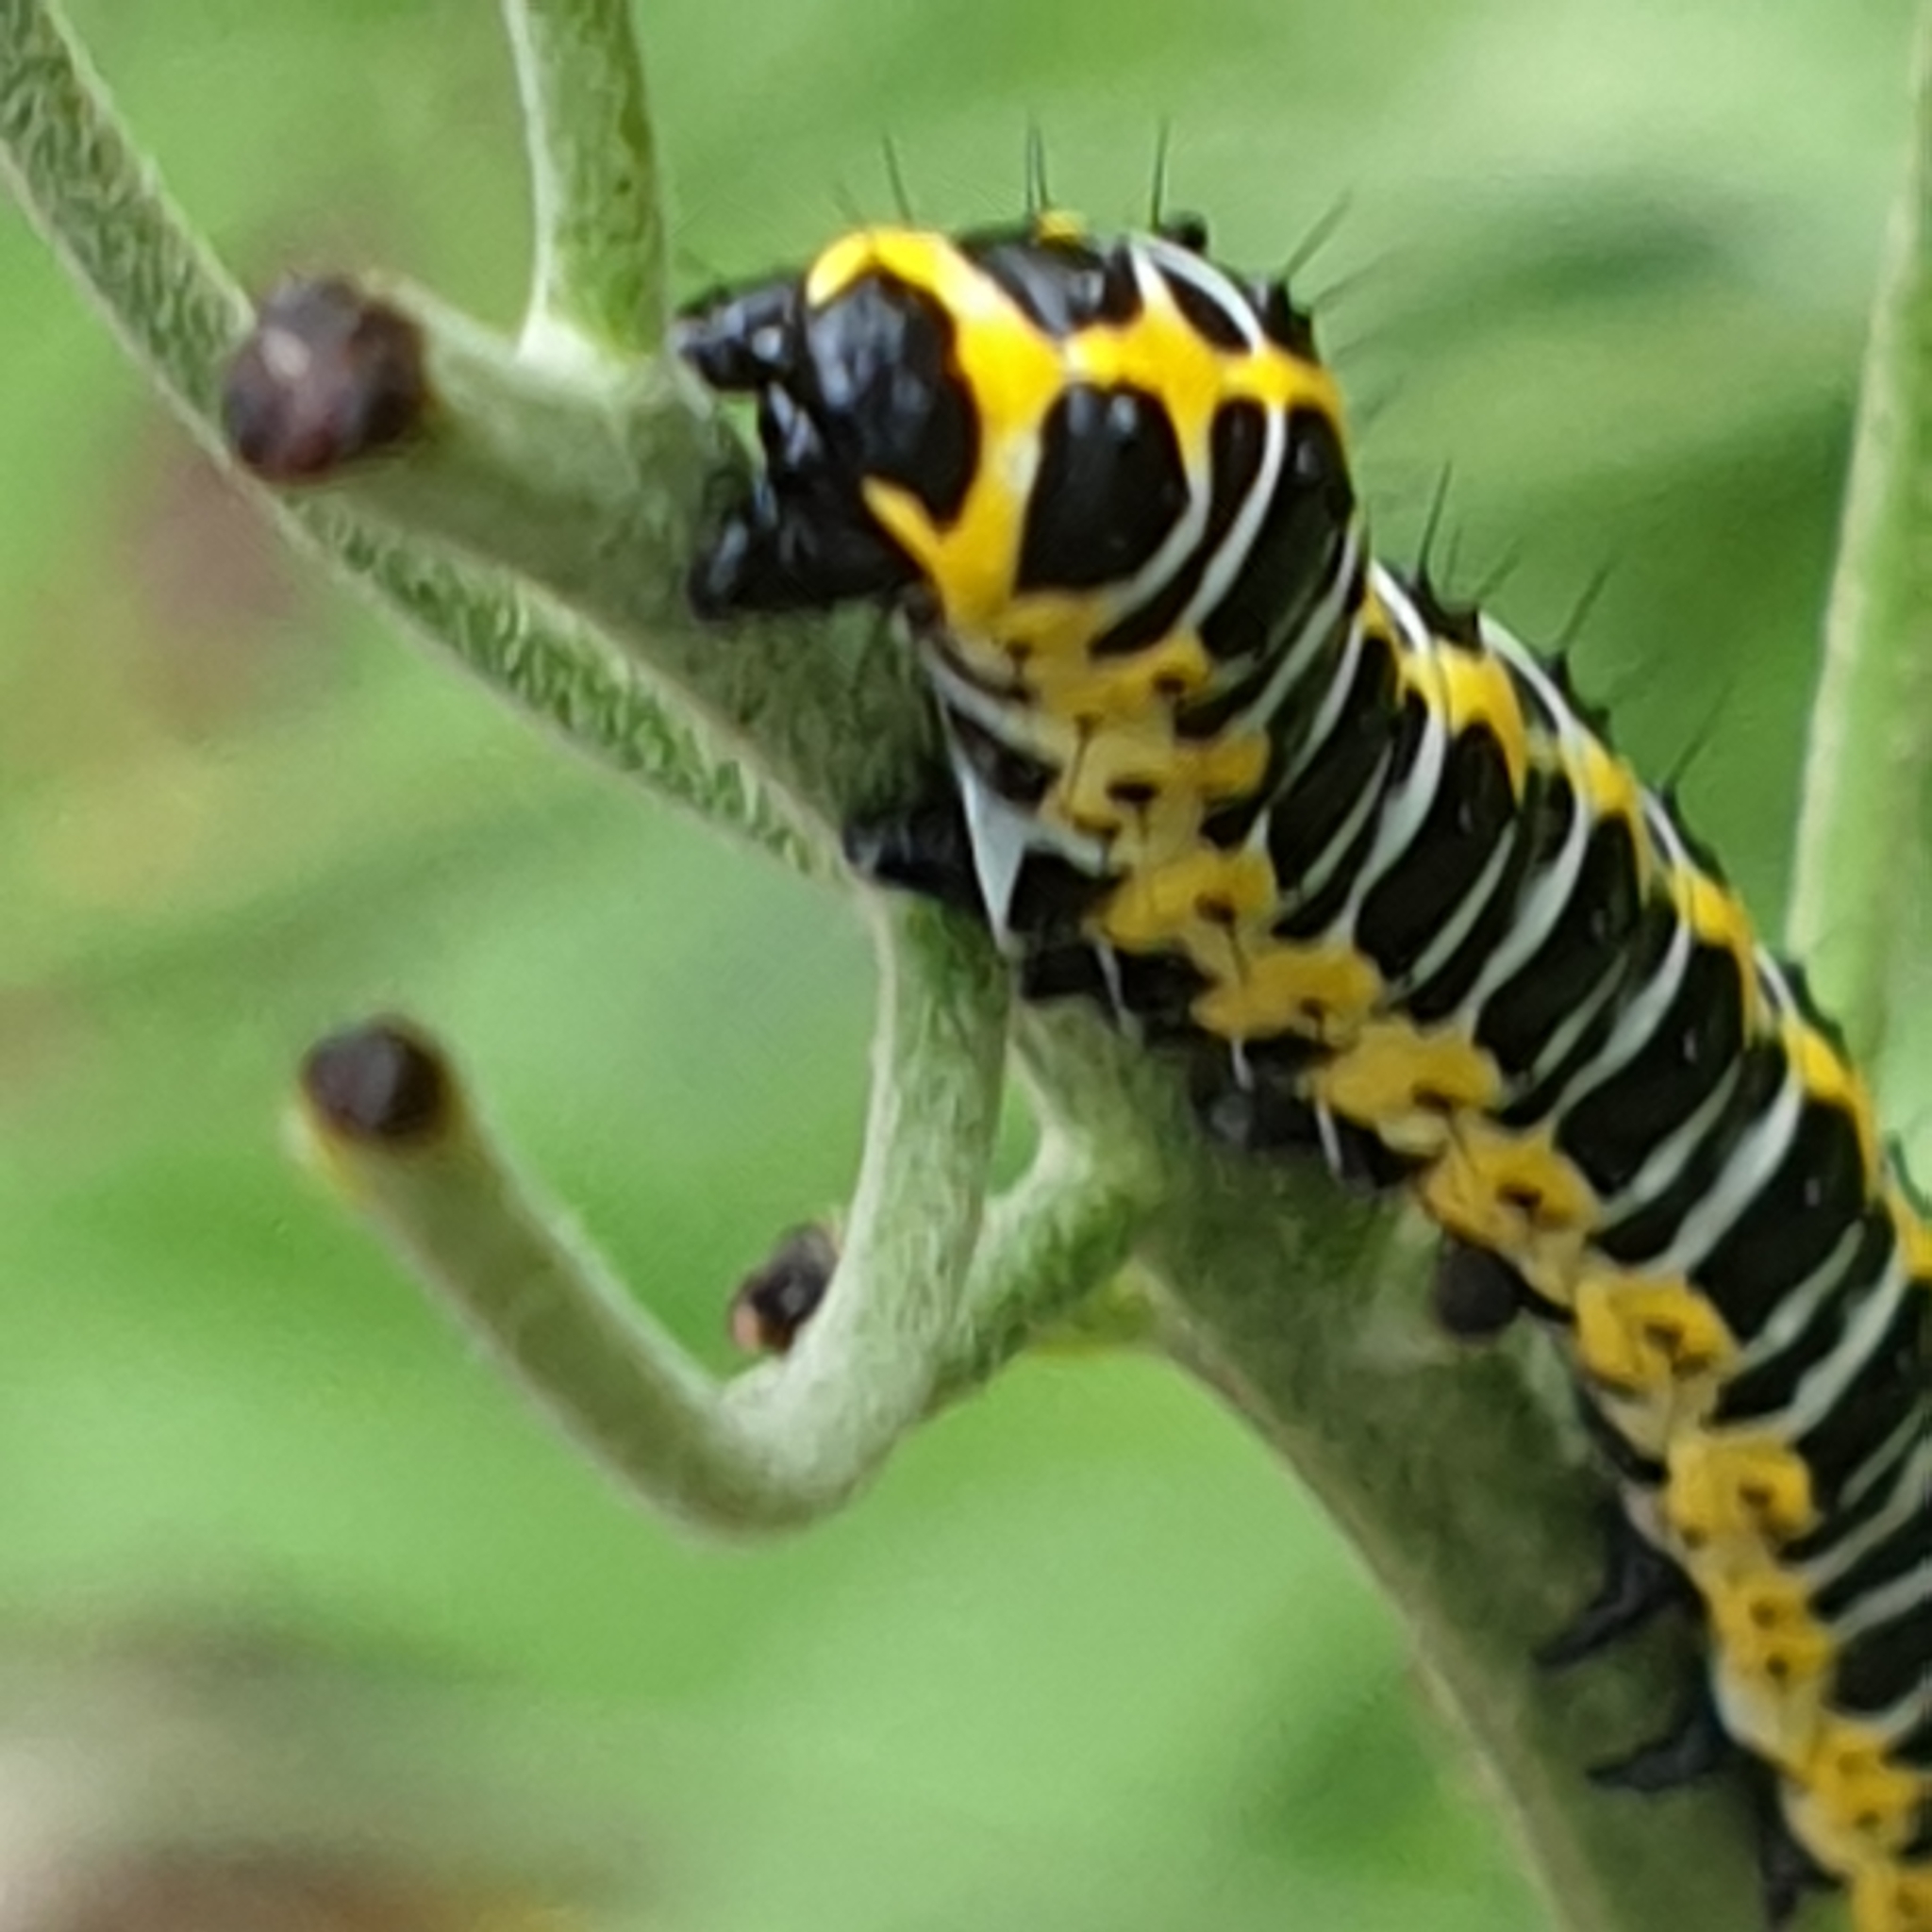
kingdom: Animalia
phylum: Arthropoda
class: Insecta
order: Lepidoptera
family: Noctuidae
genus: Cucullia
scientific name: Cucullia lactucae
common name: Lettuce shark
